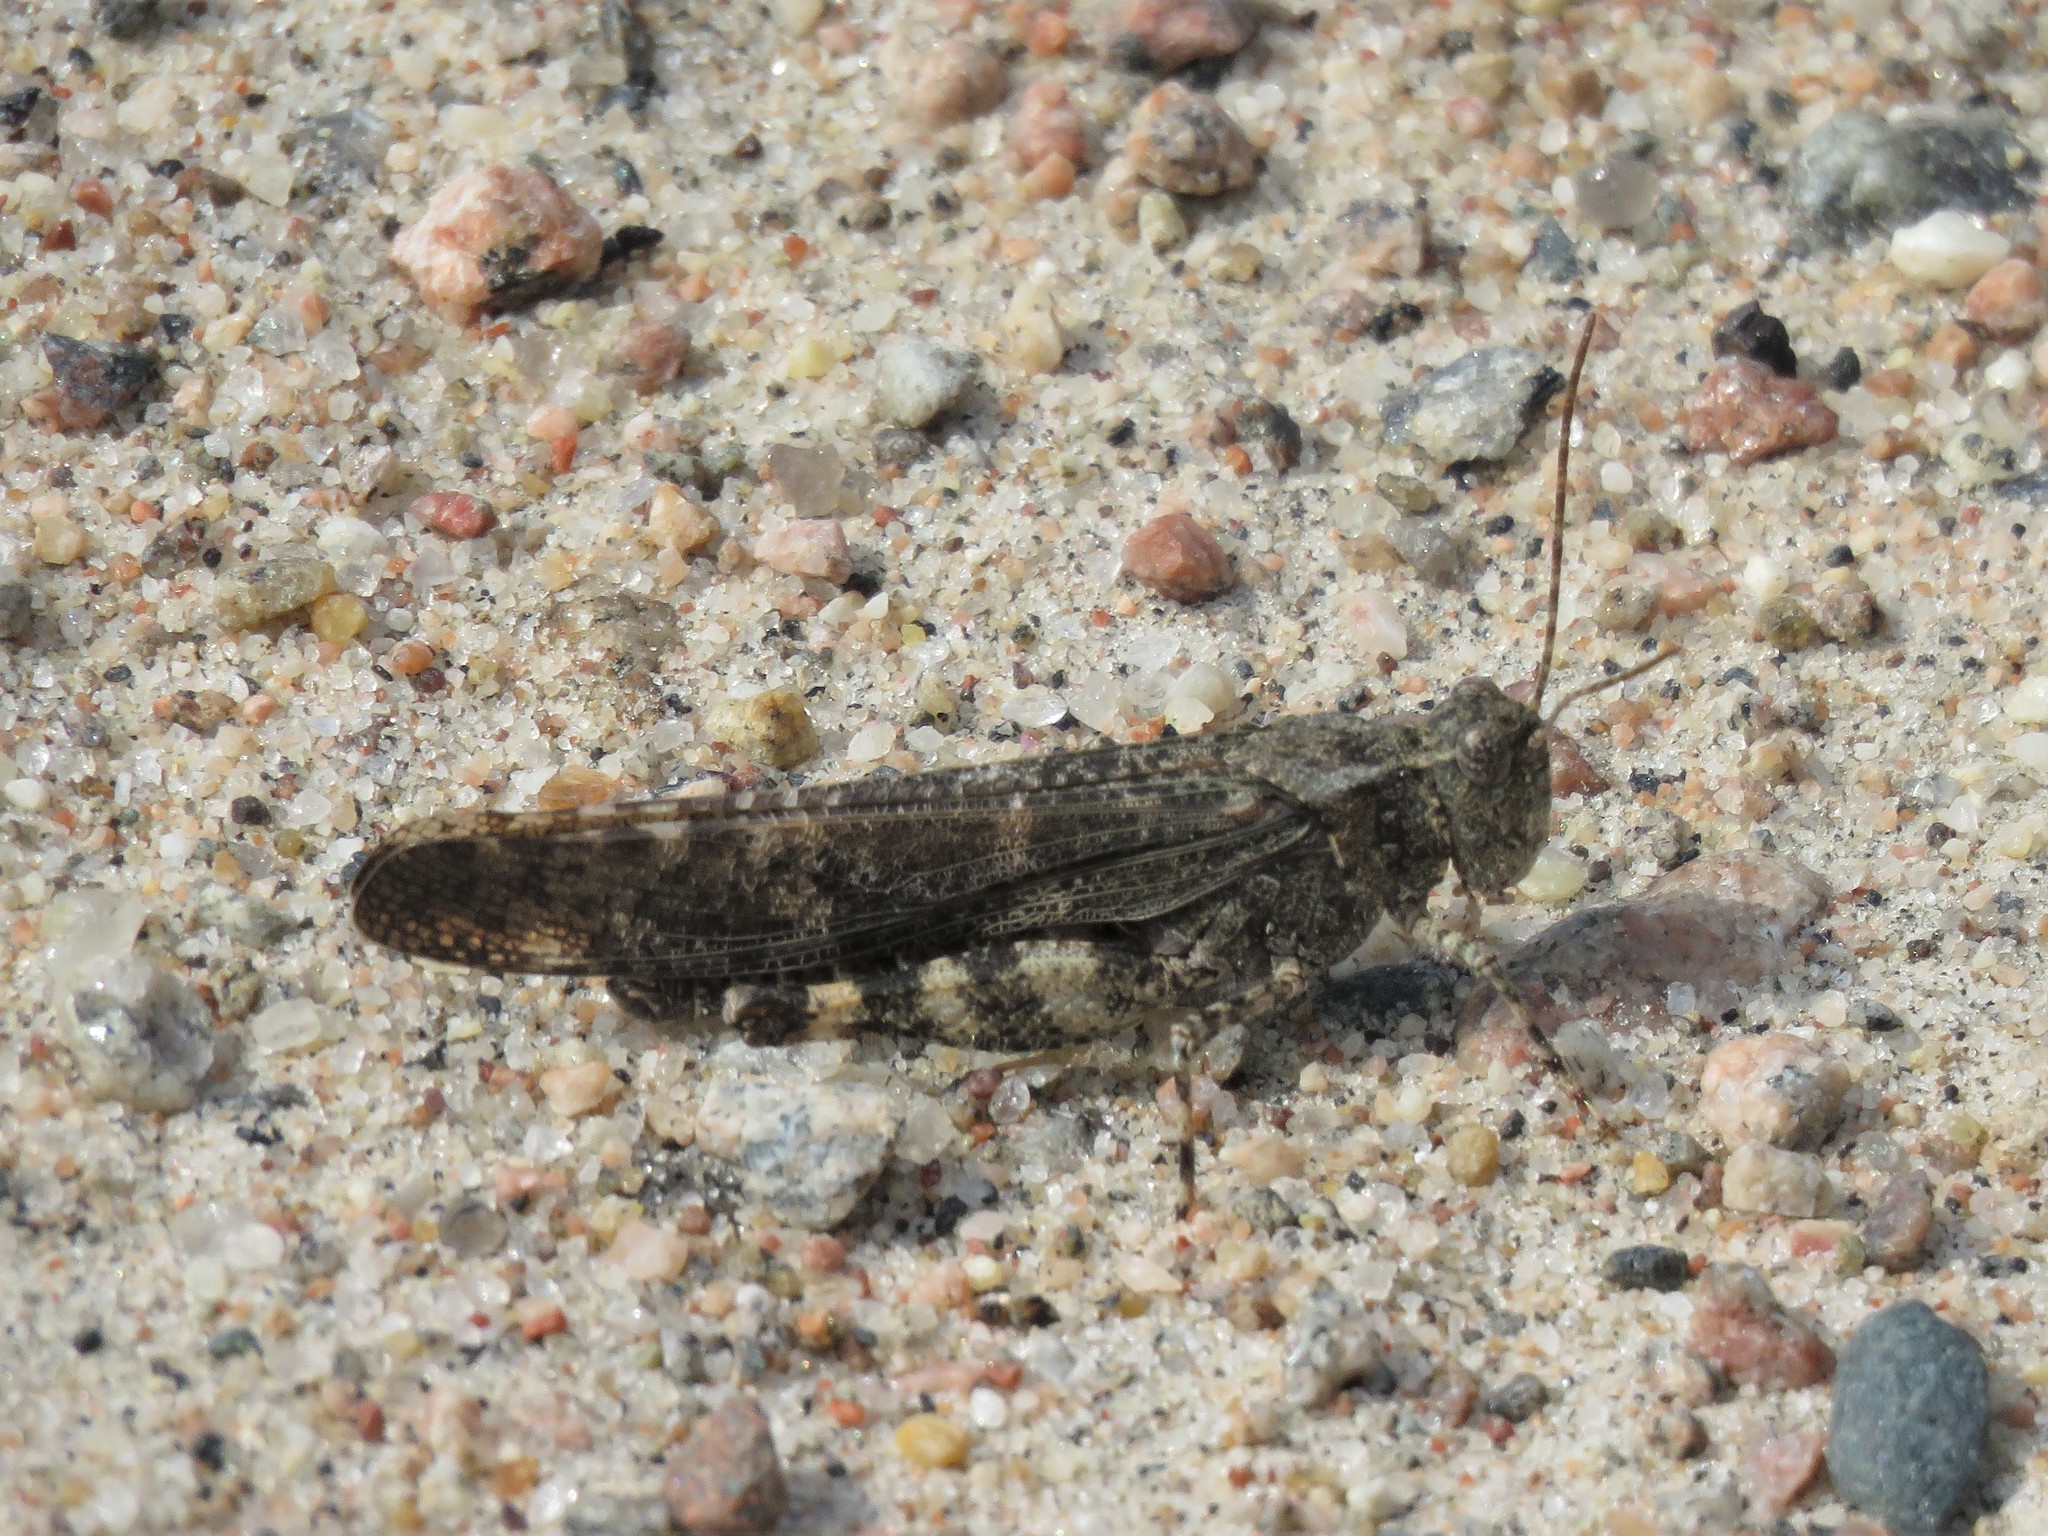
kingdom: Animalia
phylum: Arthropoda
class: Insecta
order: Orthoptera
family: Acrididae
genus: Trimerotropis
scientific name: Trimerotropis verruculata
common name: Crackling forest grasshopper
